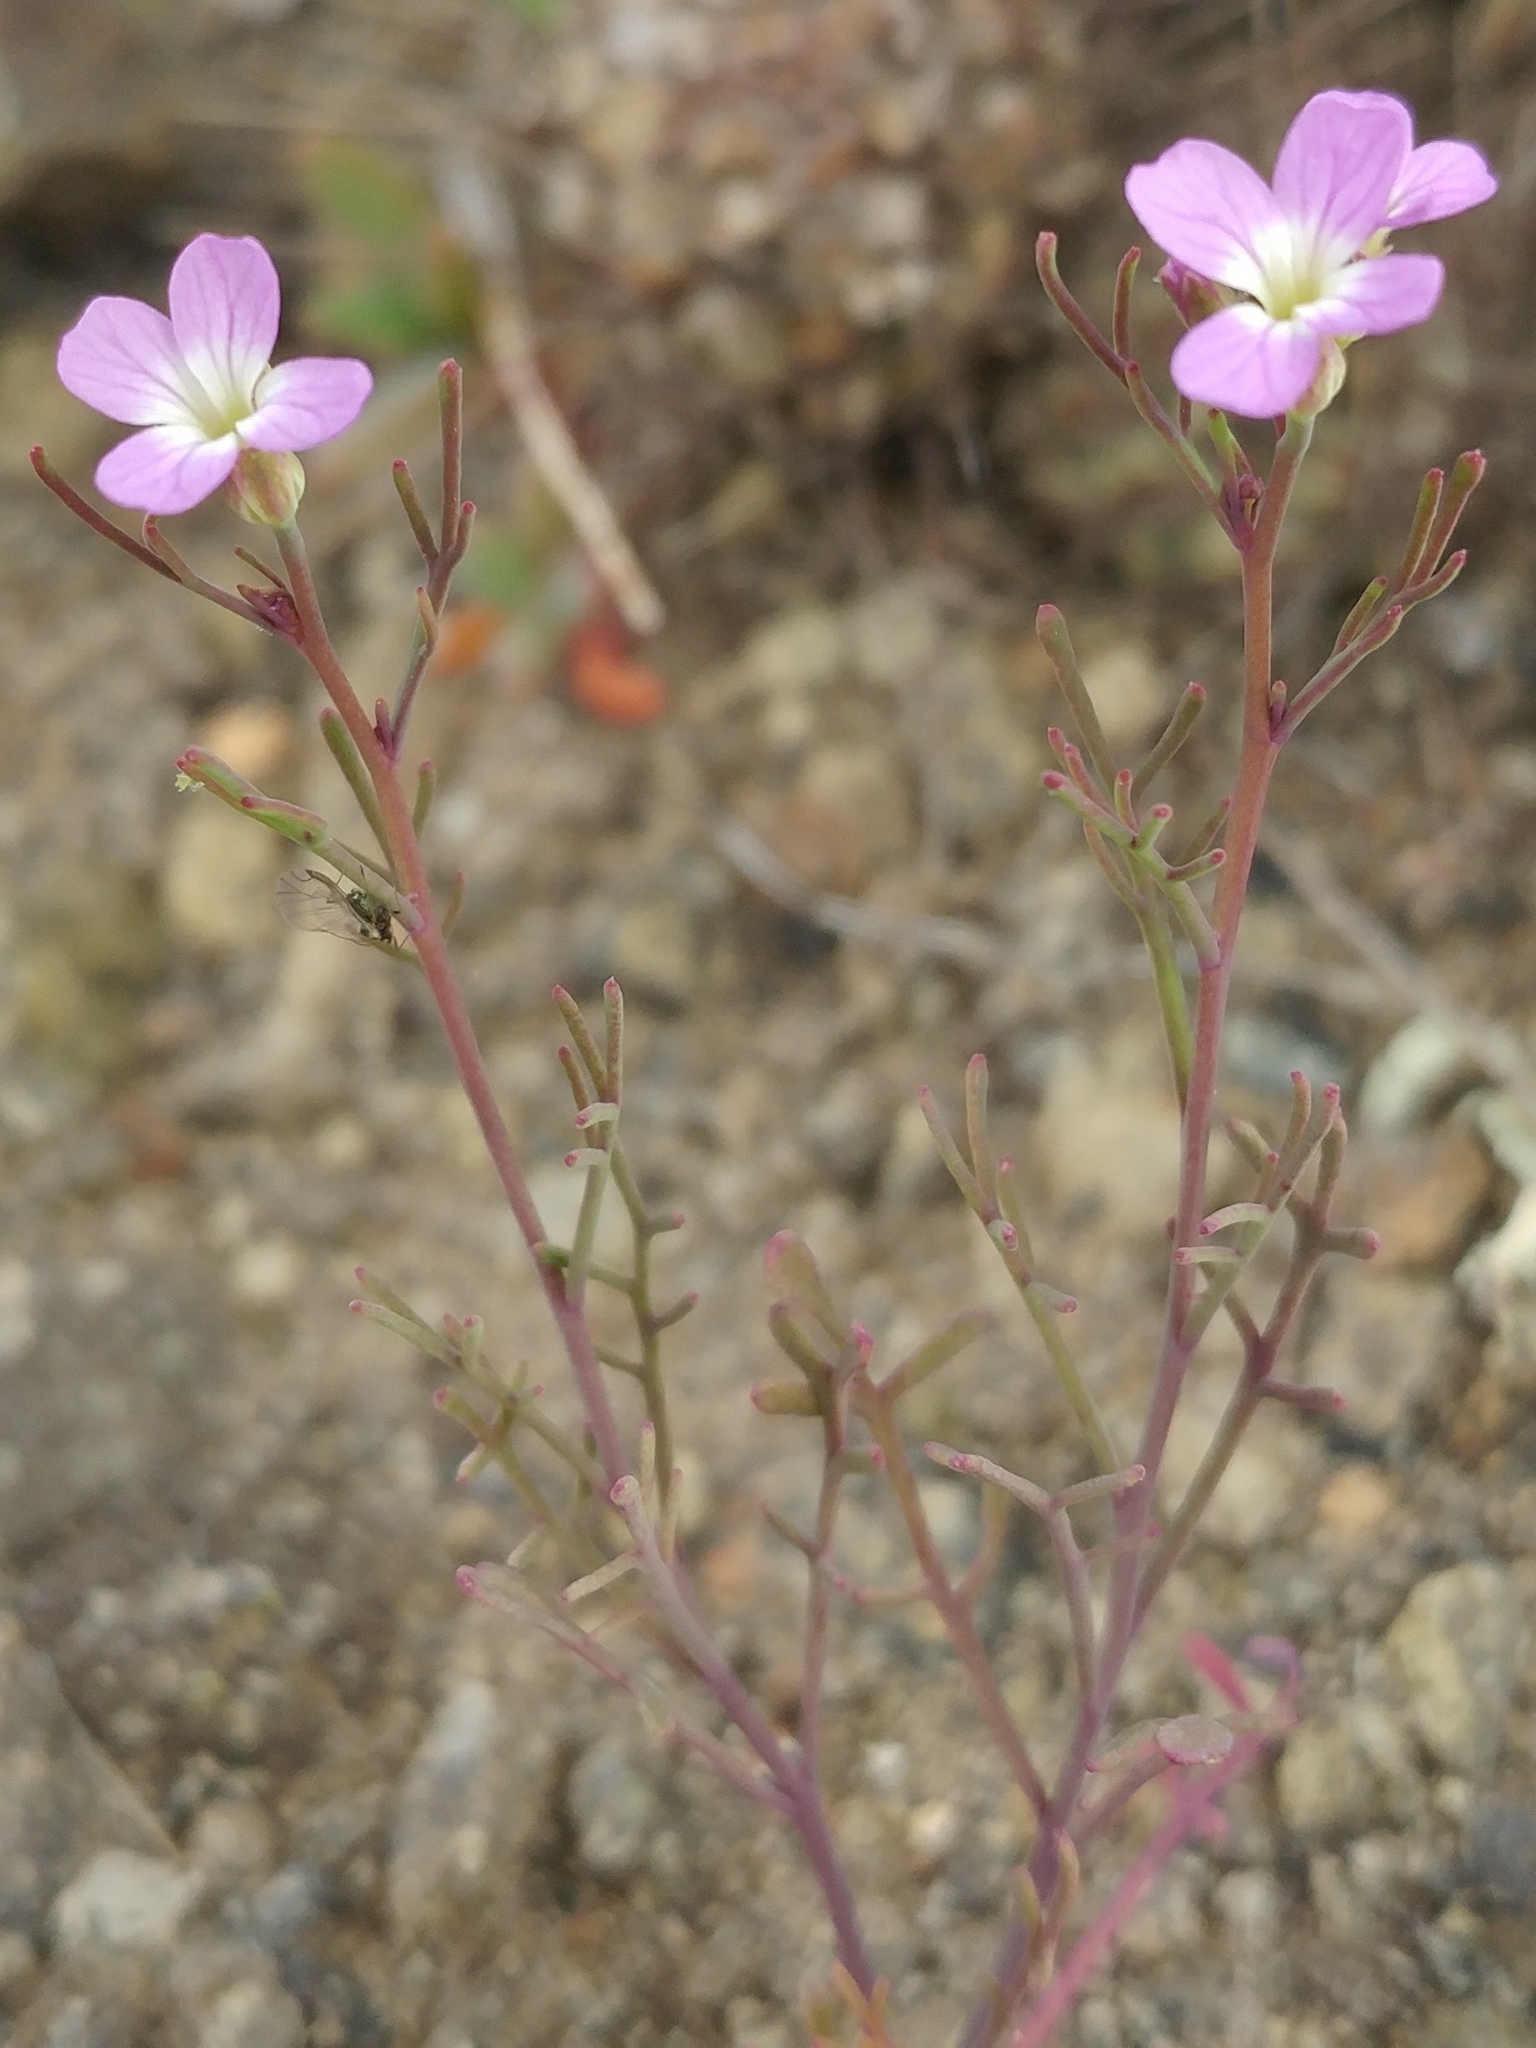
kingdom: Plantae
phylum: Tracheophyta
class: Magnoliopsida
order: Brassicales
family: Brassicaceae
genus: Sibara
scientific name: Sibara filifolia
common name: Santa cruz island-rockcress
